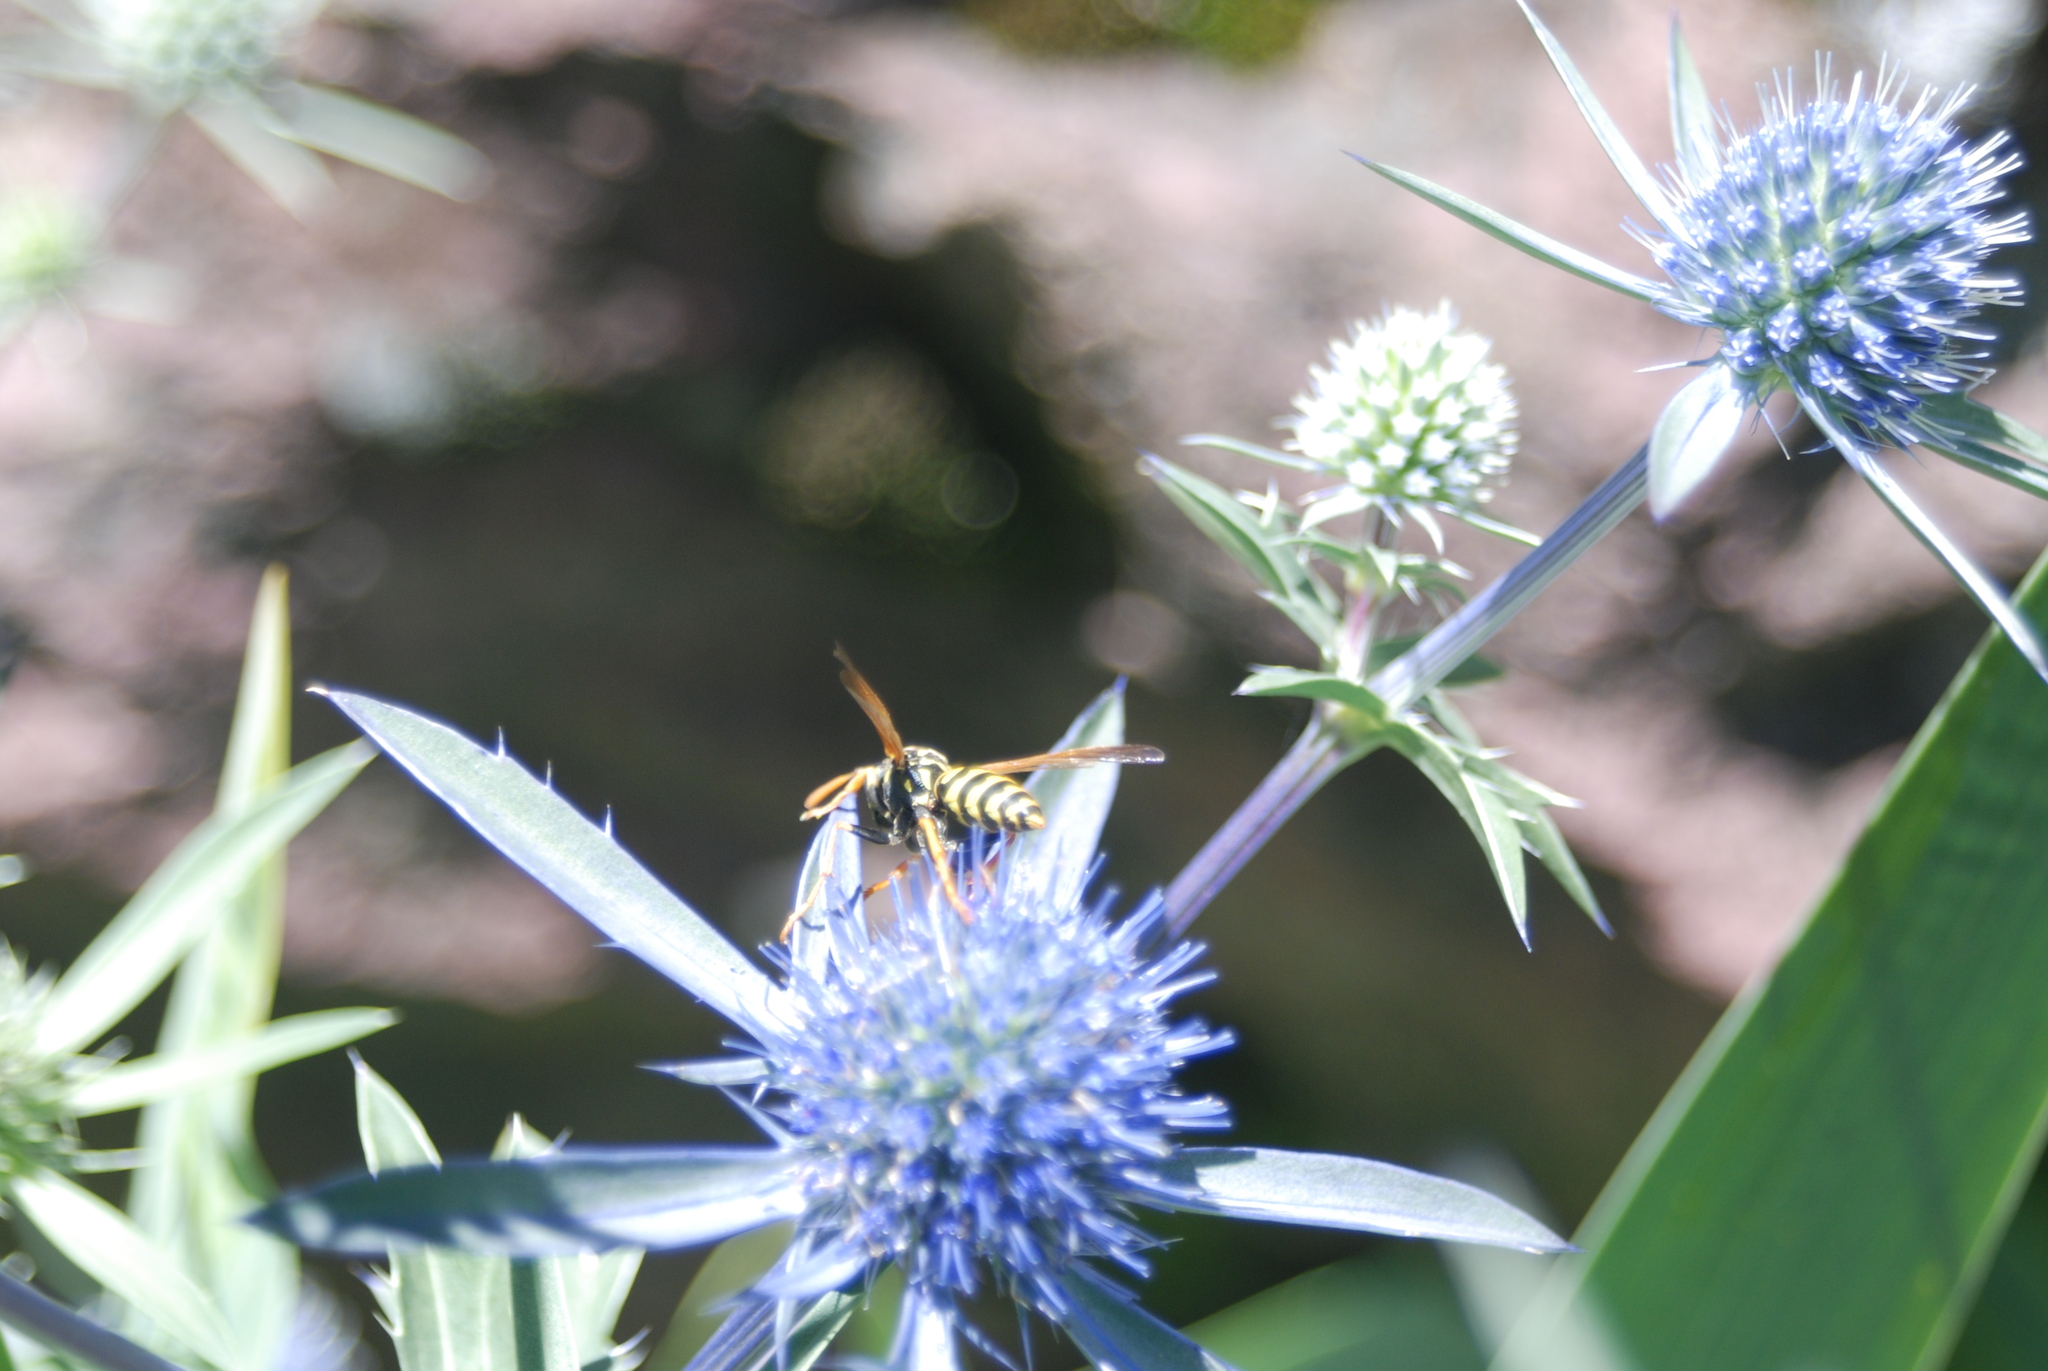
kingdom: Animalia
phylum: Arthropoda
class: Insecta
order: Hymenoptera
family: Eumenidae
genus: Polistes
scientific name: Polistes dominula
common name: Paper wasp
